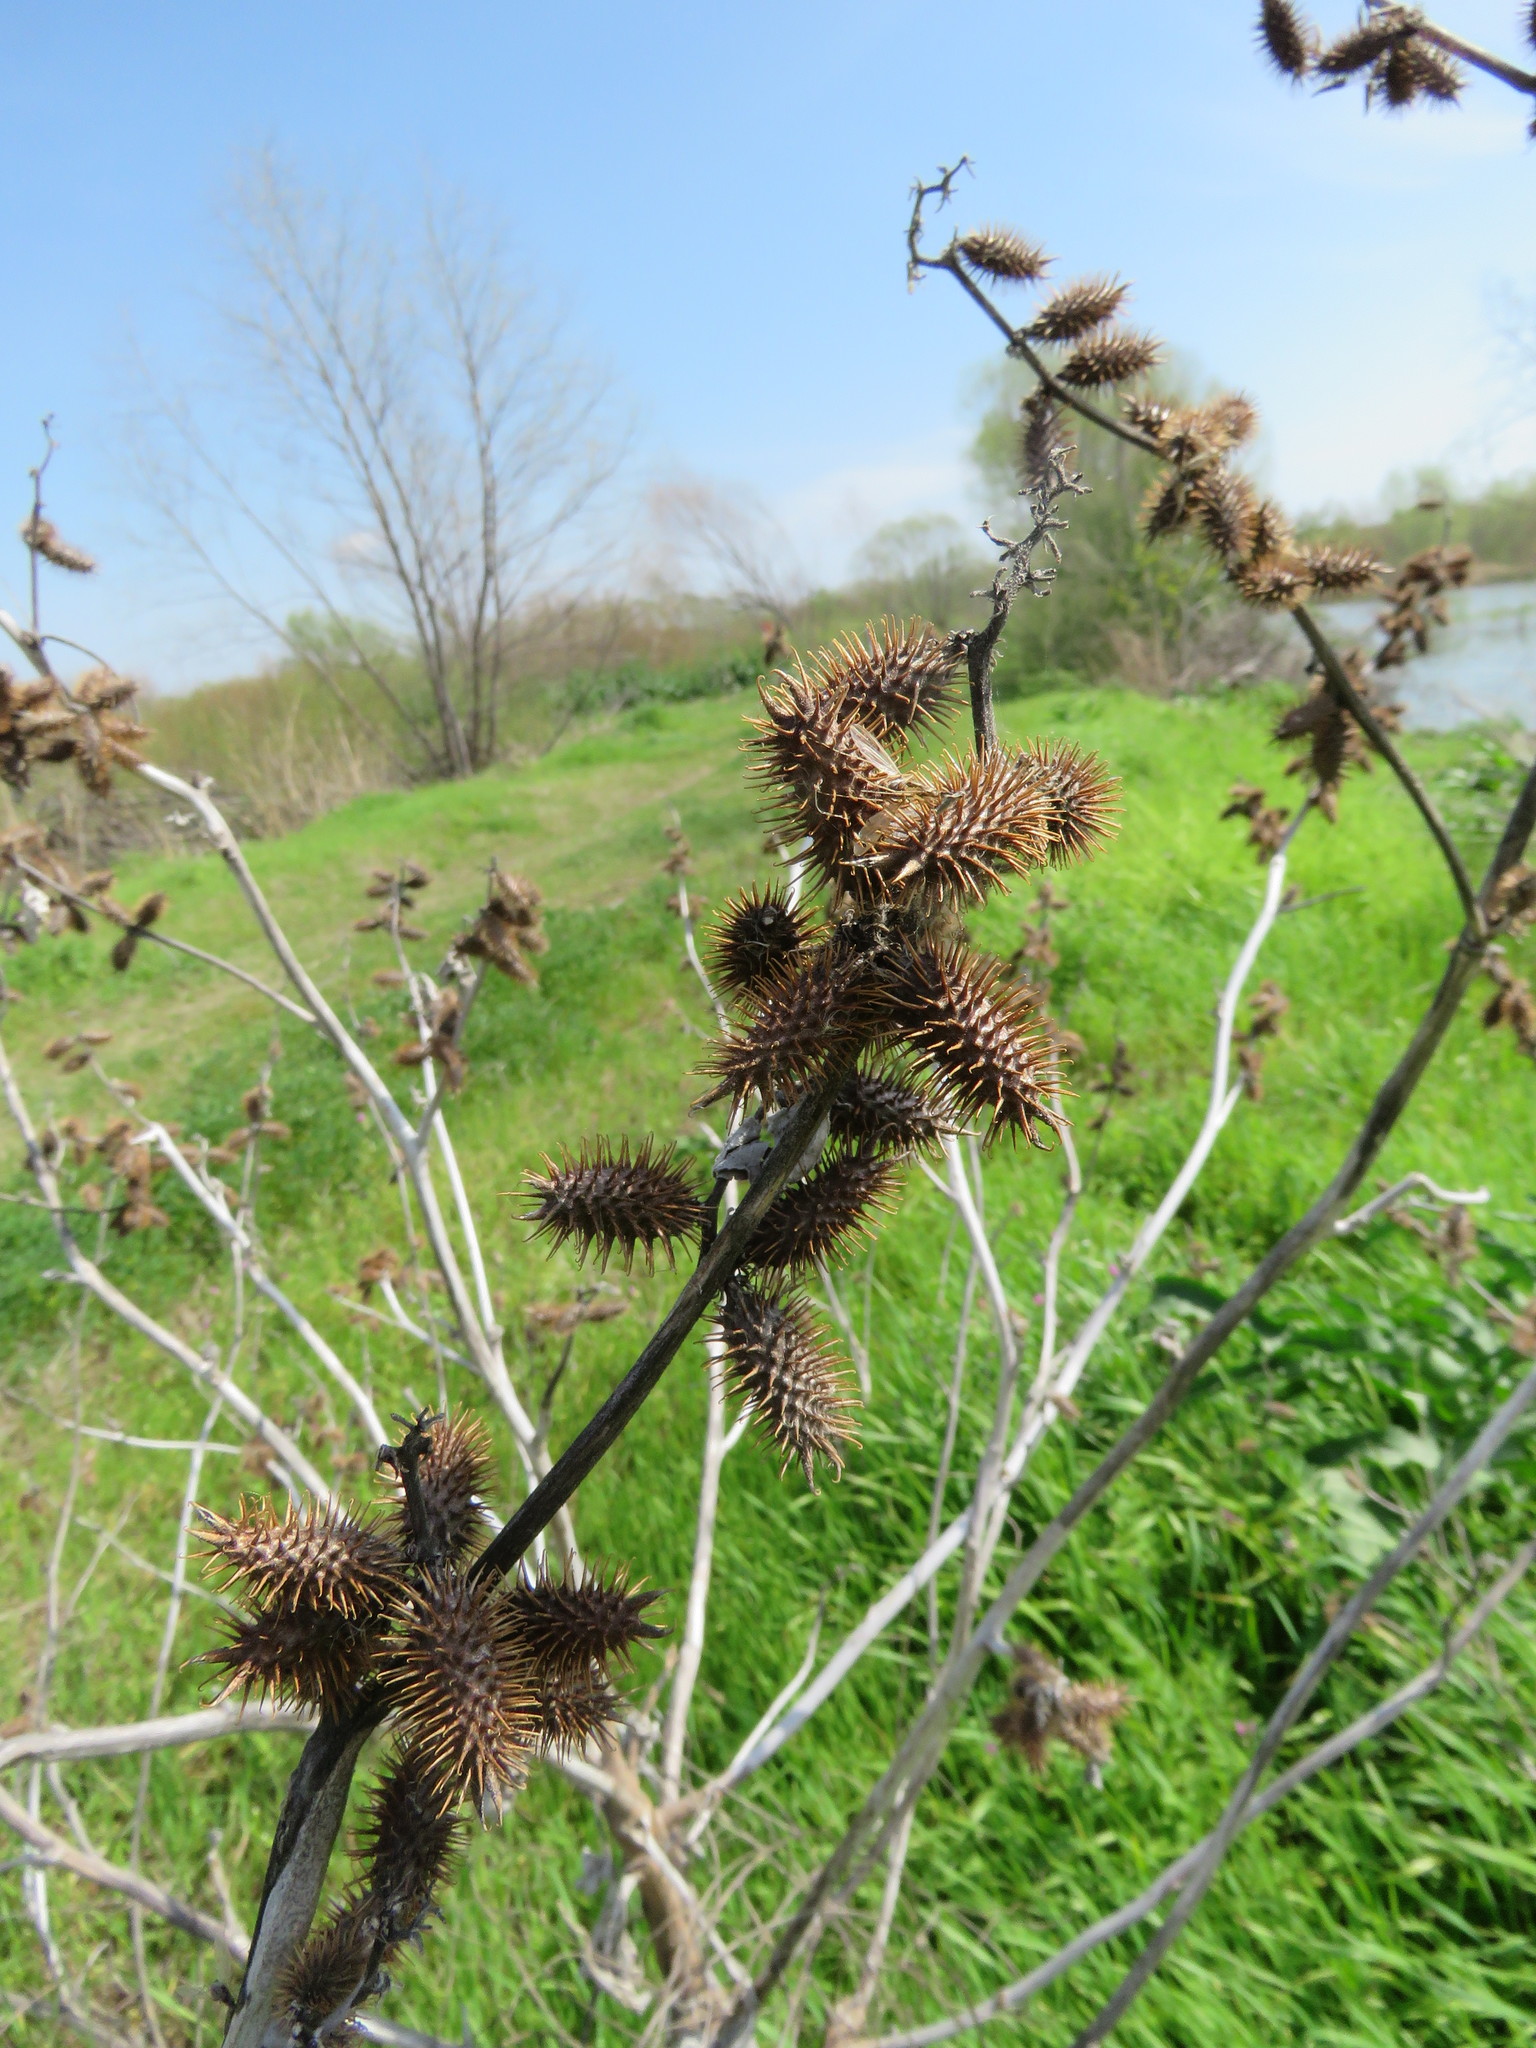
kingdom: Plantae
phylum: Tracheophyta
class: Magnoliopsida
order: Asterales
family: Asteraceae
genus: Xanthium
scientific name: Xanthium strumarium
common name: Rough cocklebur
